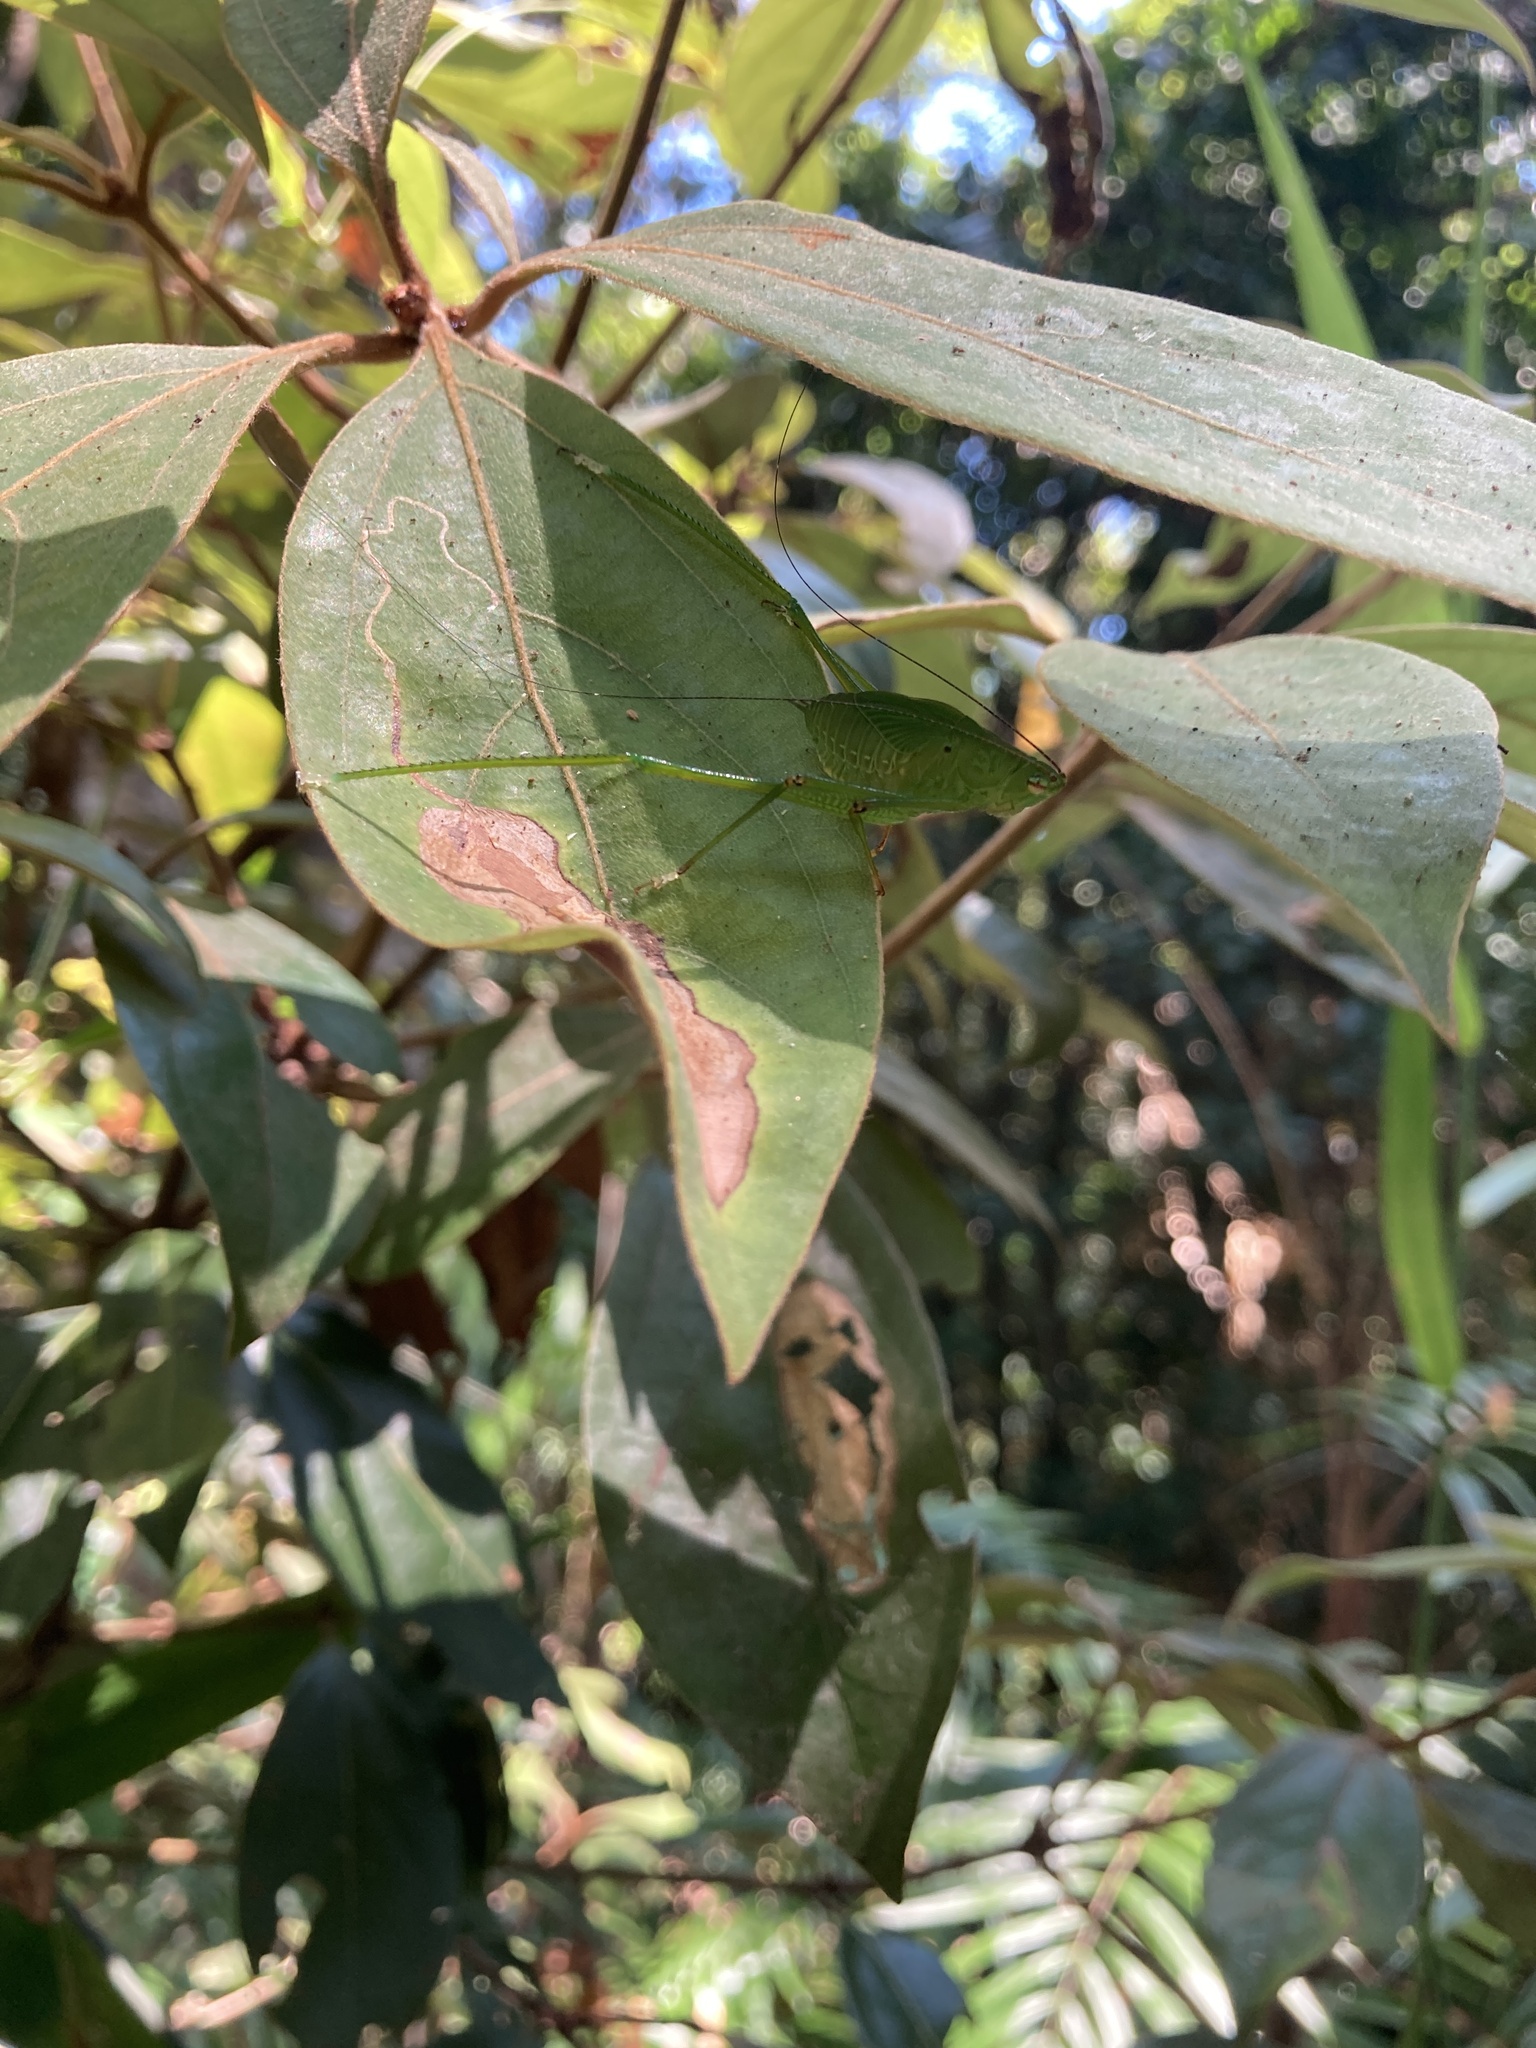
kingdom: Animalia
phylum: Arthropoda
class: Insecta
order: Orthoptera
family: Tettigoniidae
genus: Leucopodoptera
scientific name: Leucopodoptera eumundii
